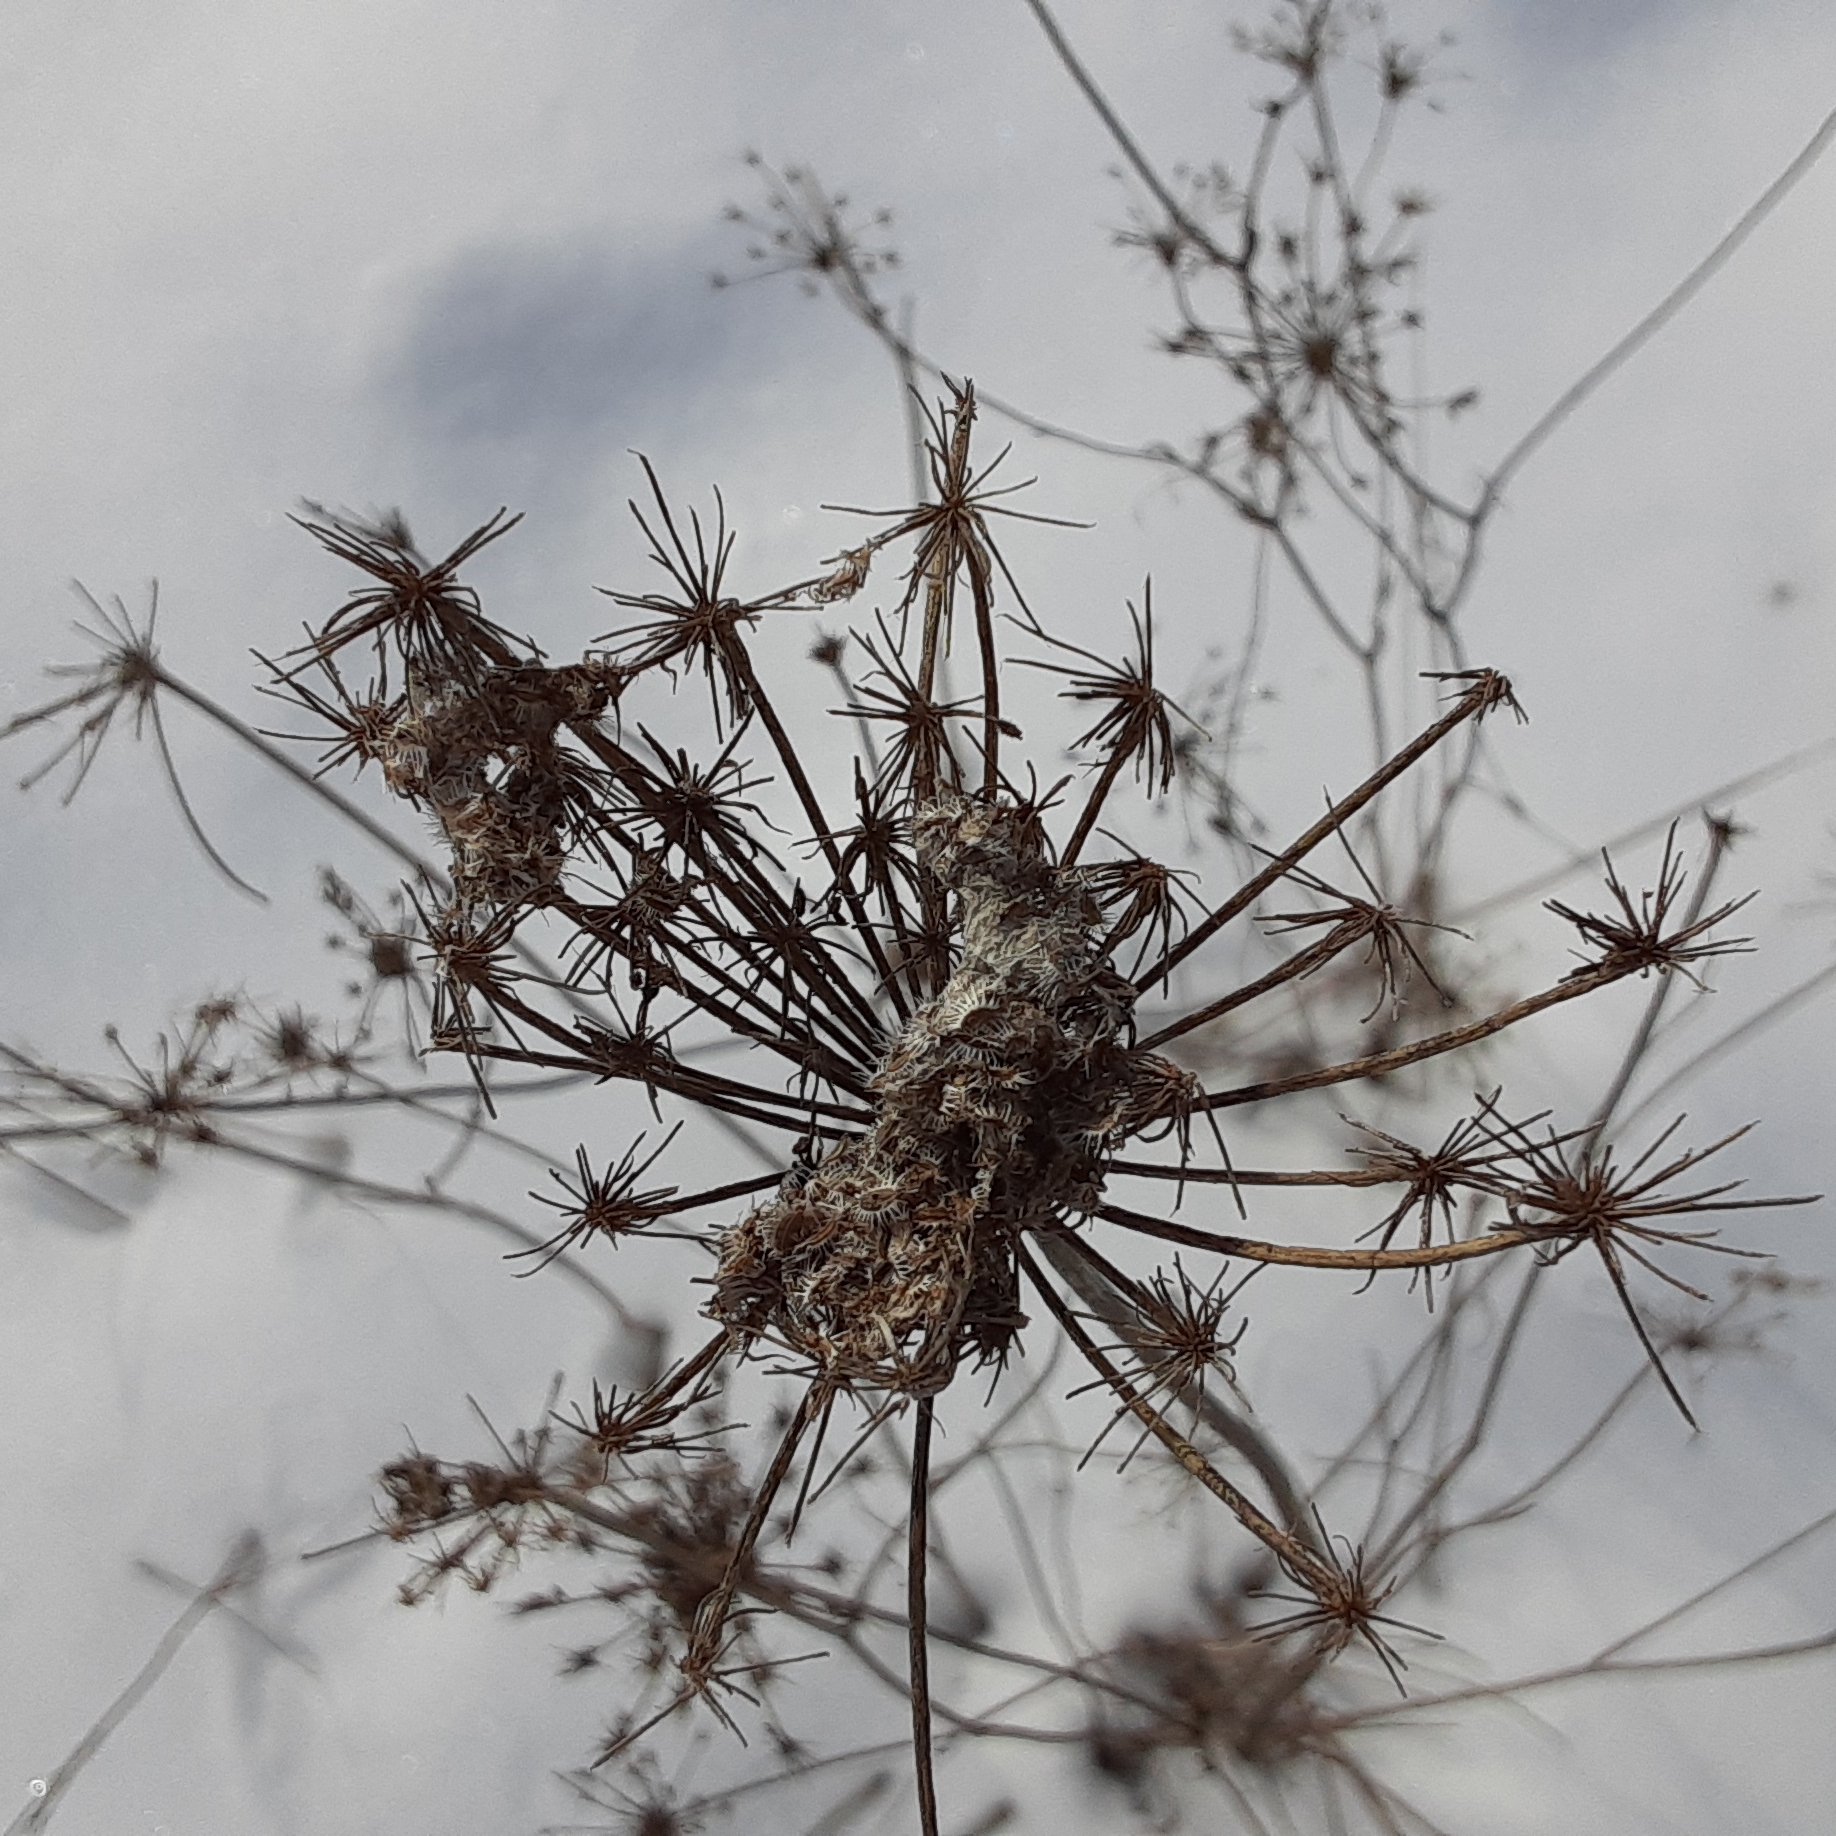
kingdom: Plantae
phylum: Tracheophyta
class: Magnoliopsida
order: Apiales
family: Apiaceae
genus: Daucus
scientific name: Daucus carota
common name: Wild carrot
